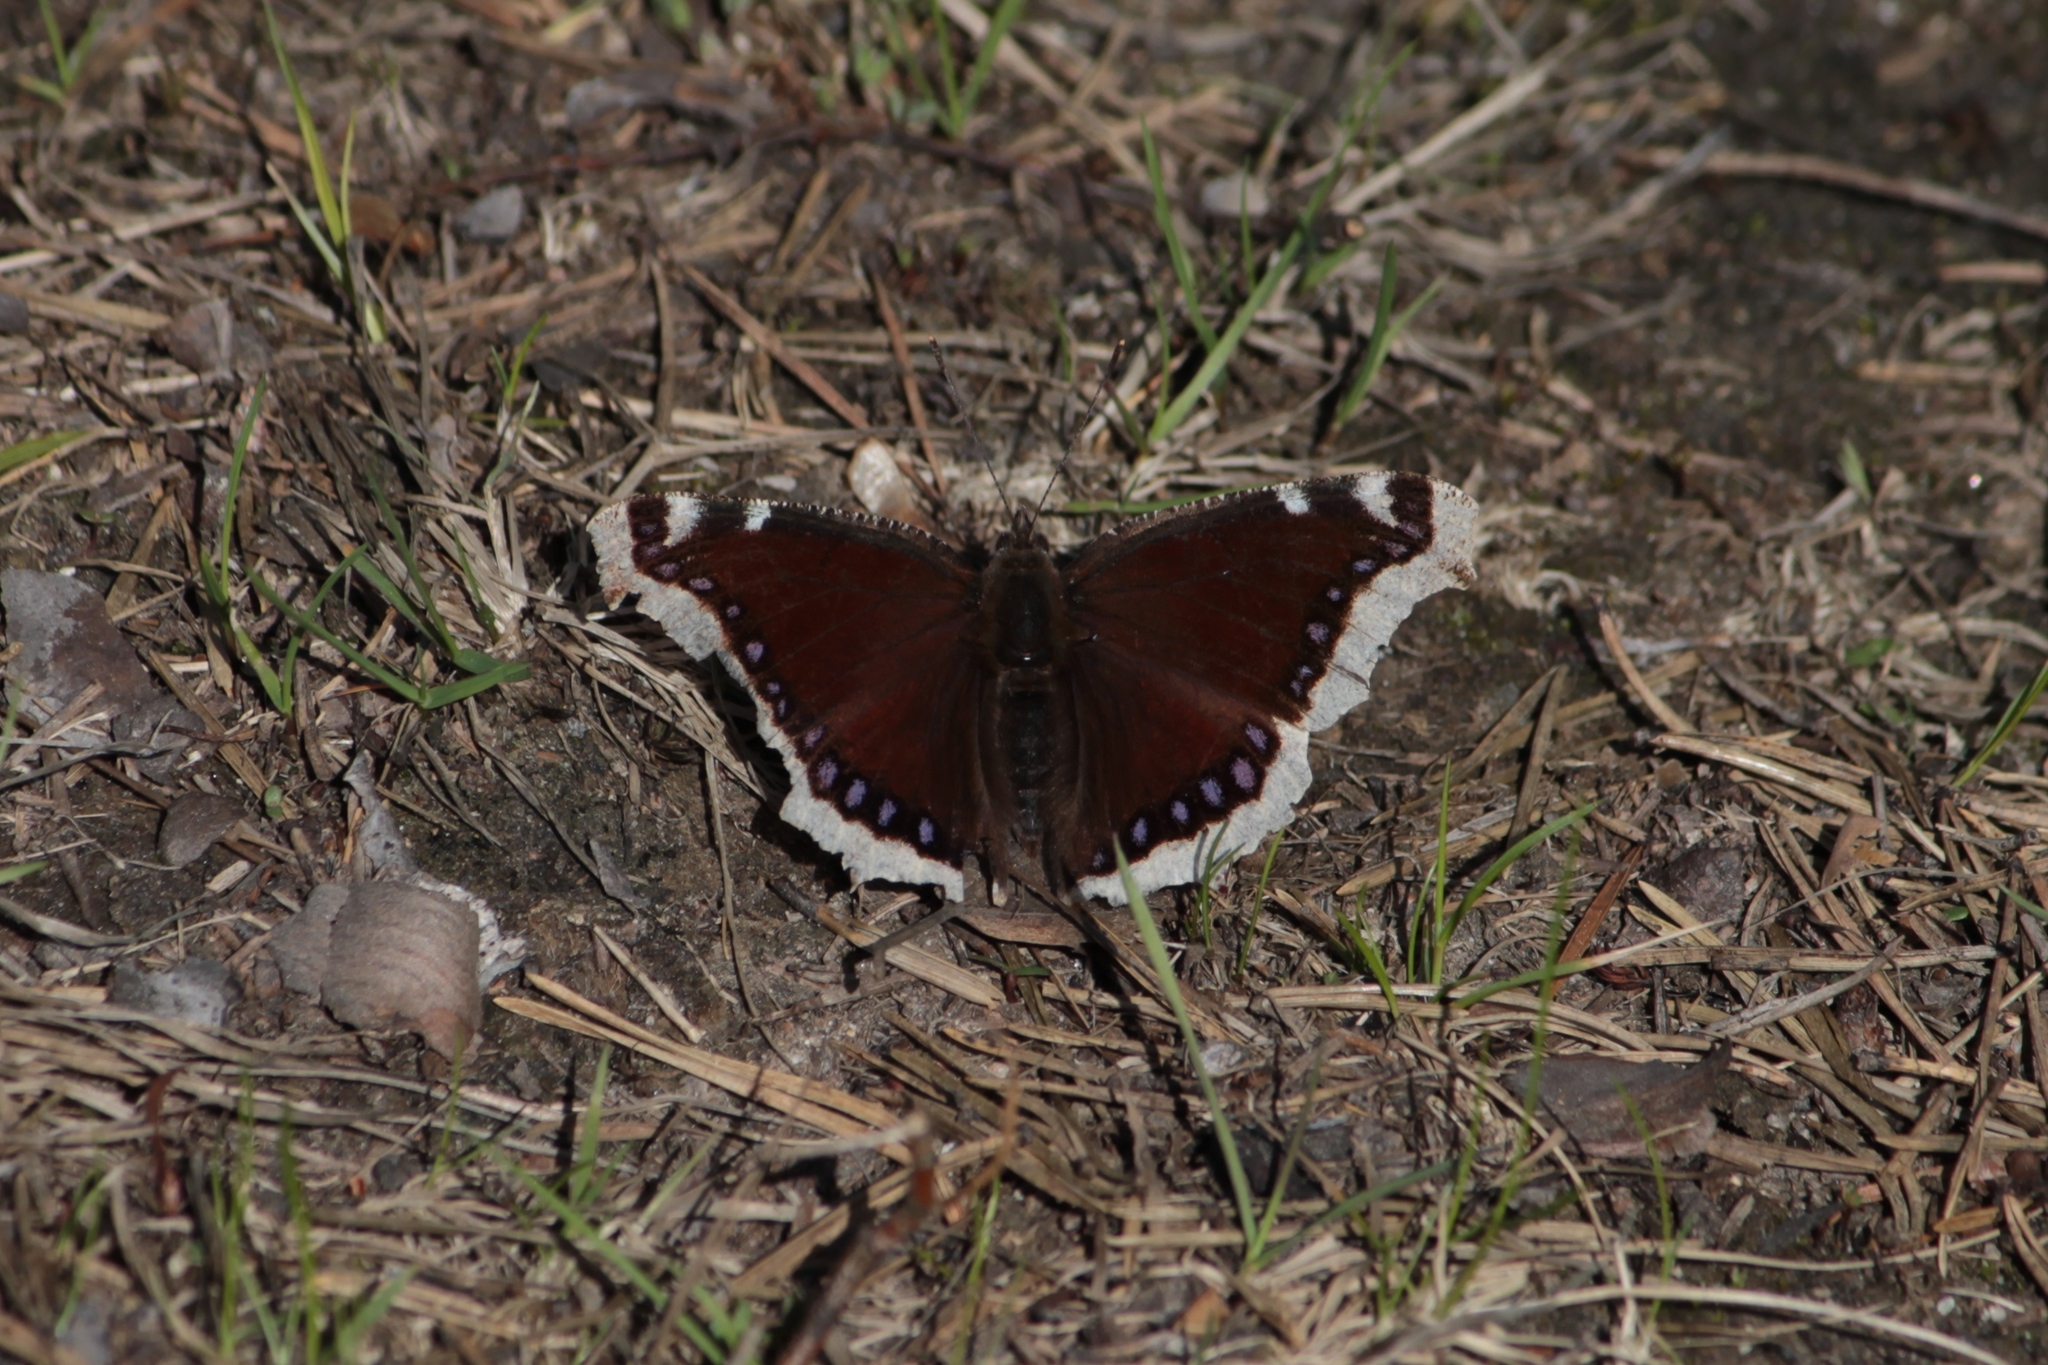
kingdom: Animalia
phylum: Arthropoda
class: Insecta
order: Lepidoptera
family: Nymphalidae
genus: Nymphalis
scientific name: Nymphalis antiopa
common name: Camberwell beauty
